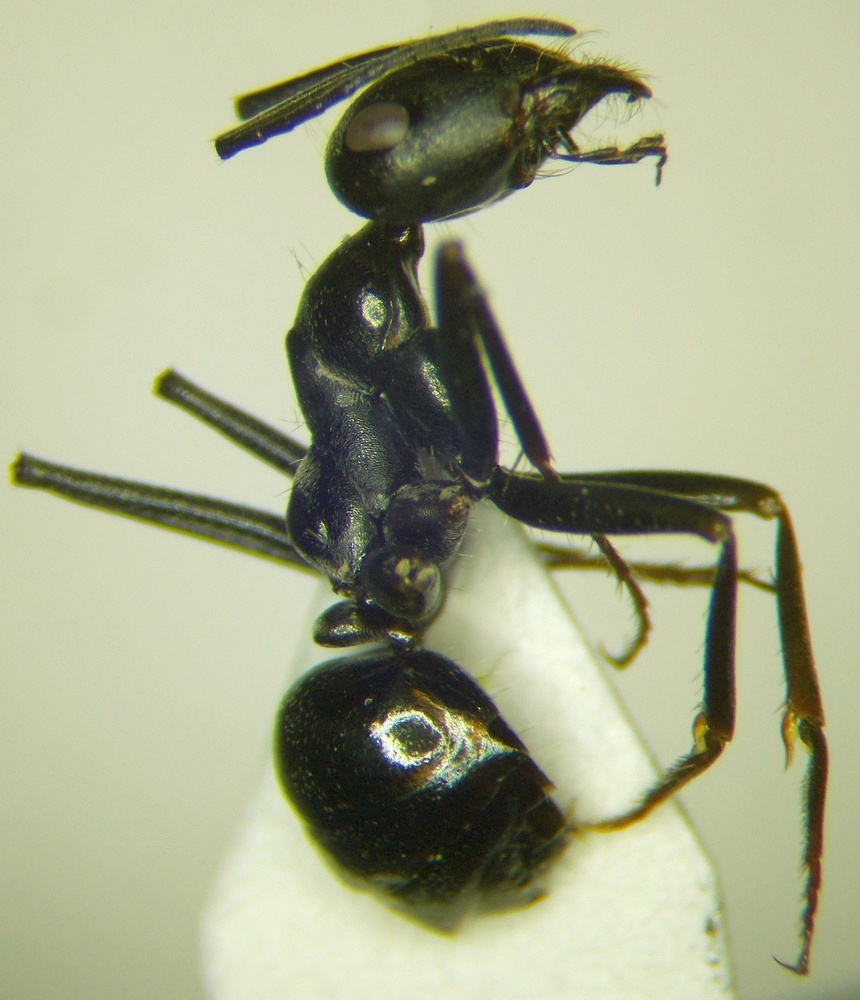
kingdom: Animalia
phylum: Arthropoda
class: Insecta
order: Hymenoptera
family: Formicidae
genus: Cataglyphis
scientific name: Cataglyphis aenescens
